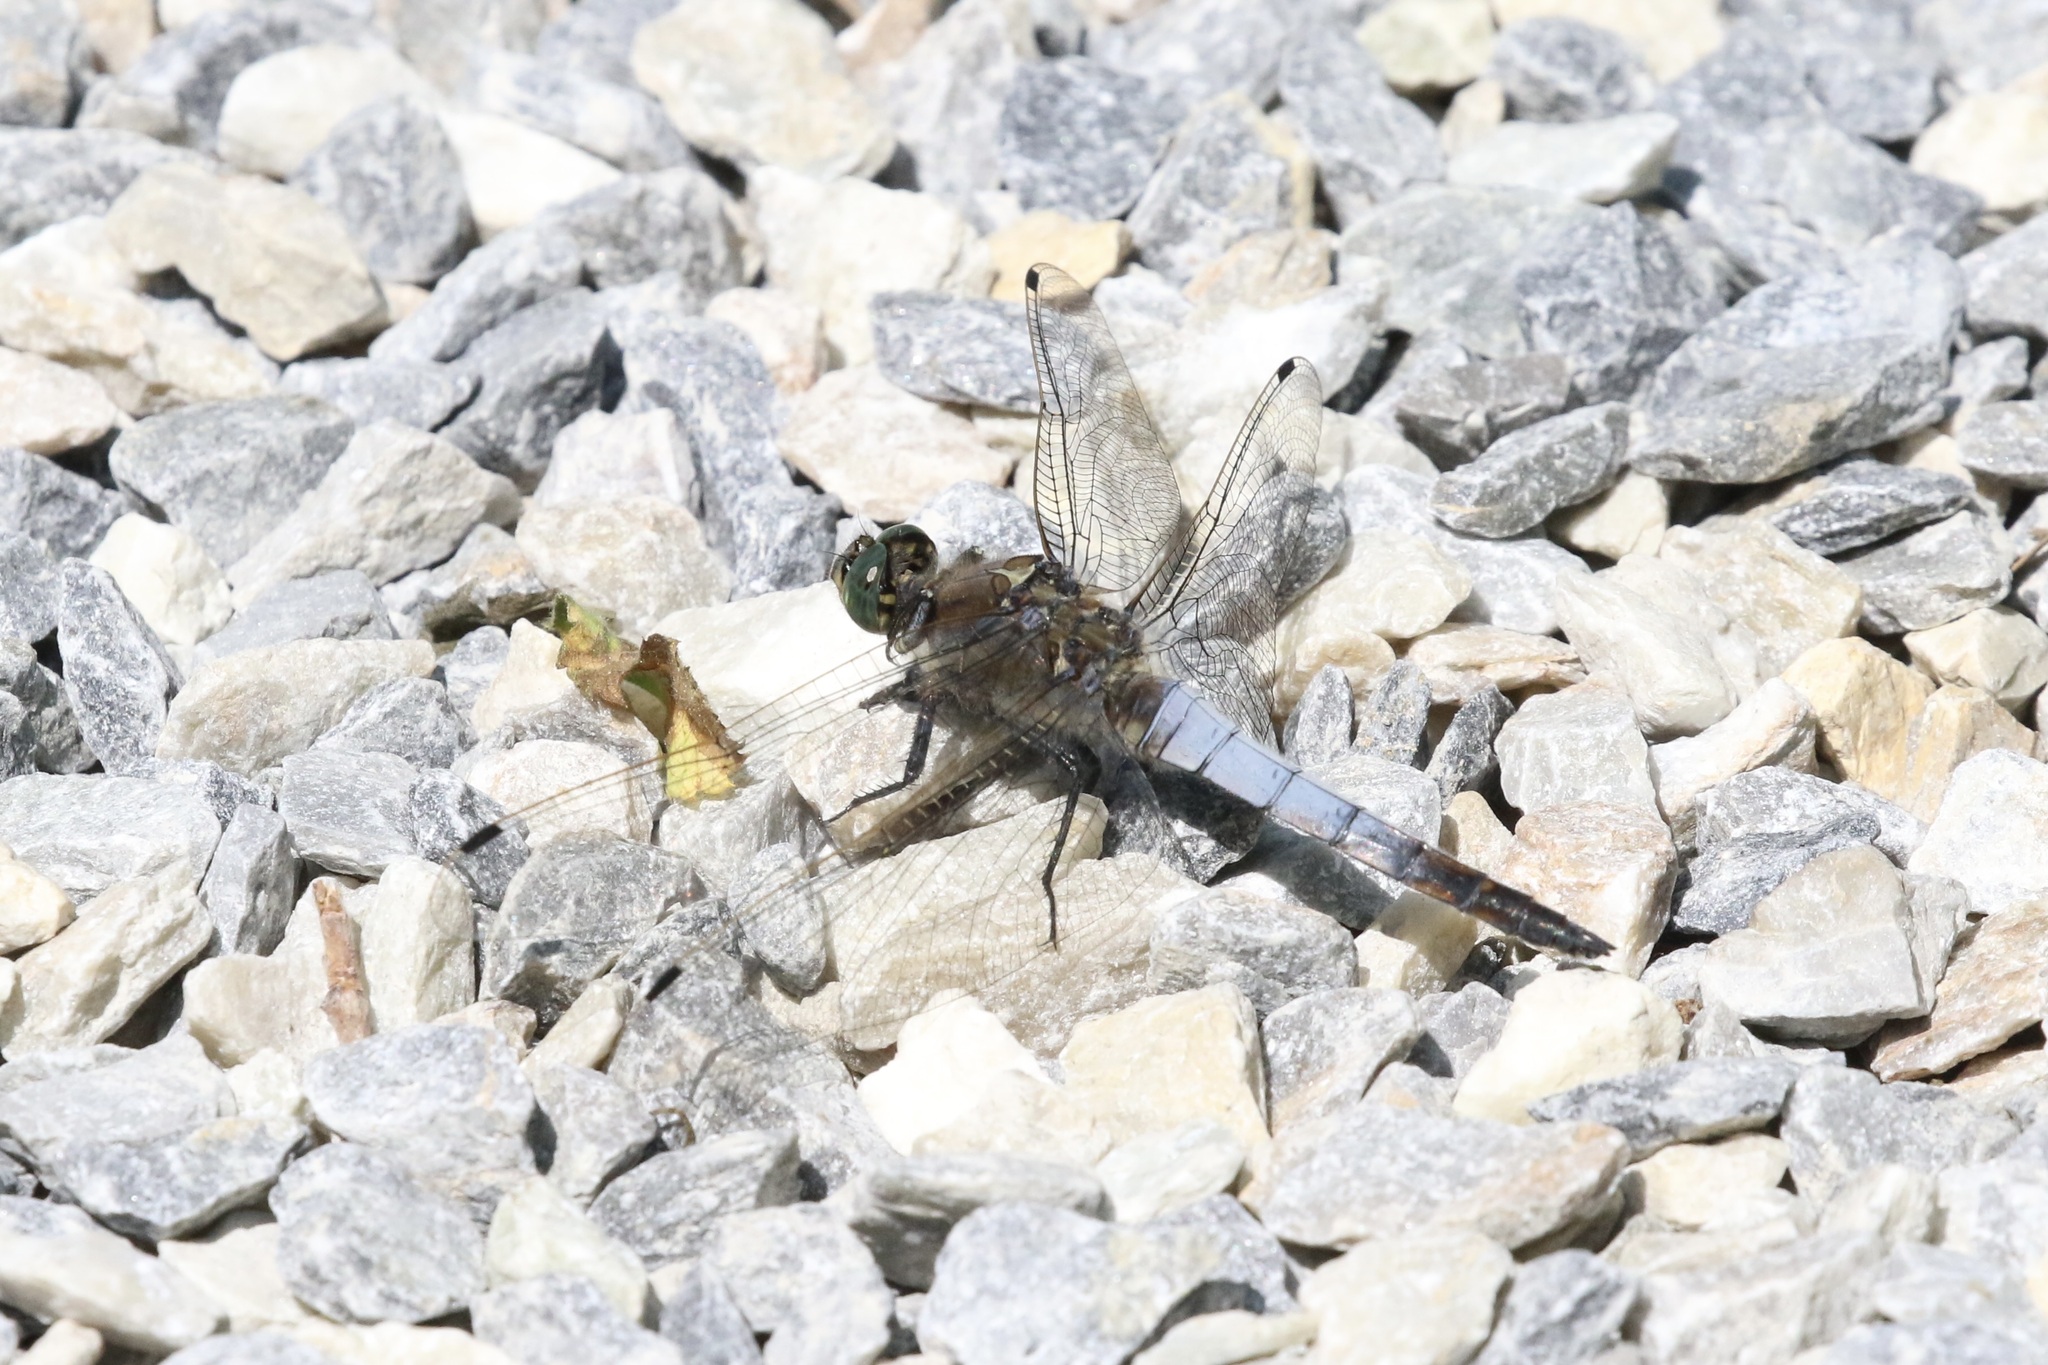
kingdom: Animalia
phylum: Arthropoda
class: Insecta
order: Odonata
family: Libellulidae
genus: Orthetrum
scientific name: Orthetrum cancellatum
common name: Black-tailed skimmer
